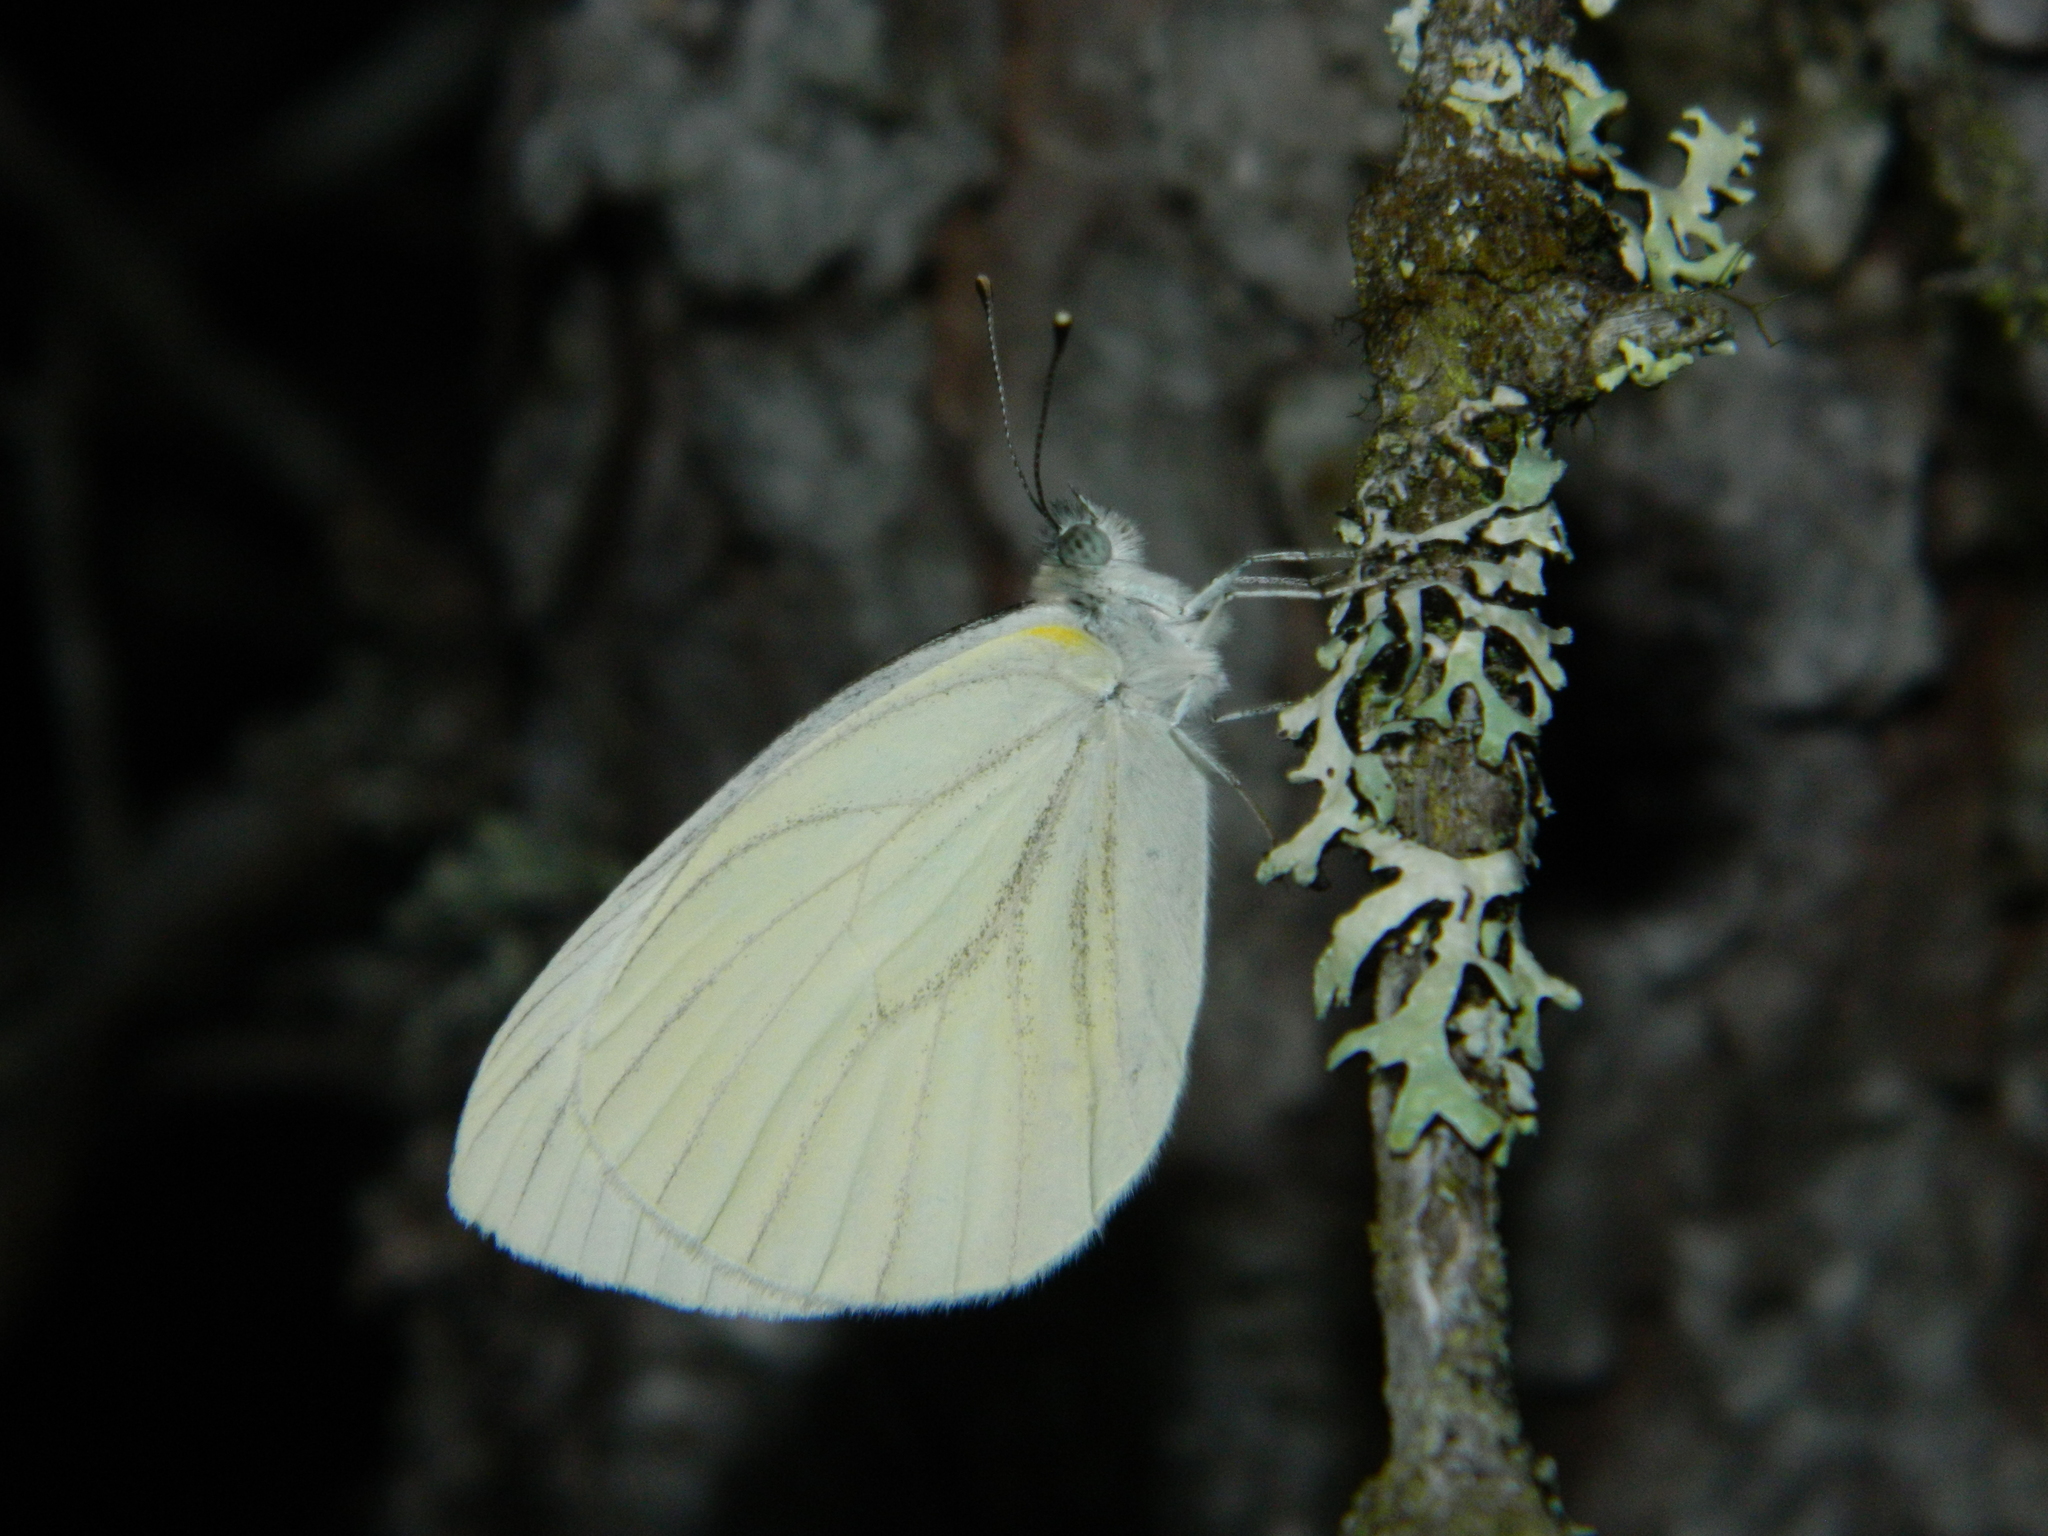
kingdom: Animalia
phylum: Arthropoda
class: Insecta
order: Lepidoptera
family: Pieridae
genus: Pieris
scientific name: Pieris oleracea
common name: Mustard white
